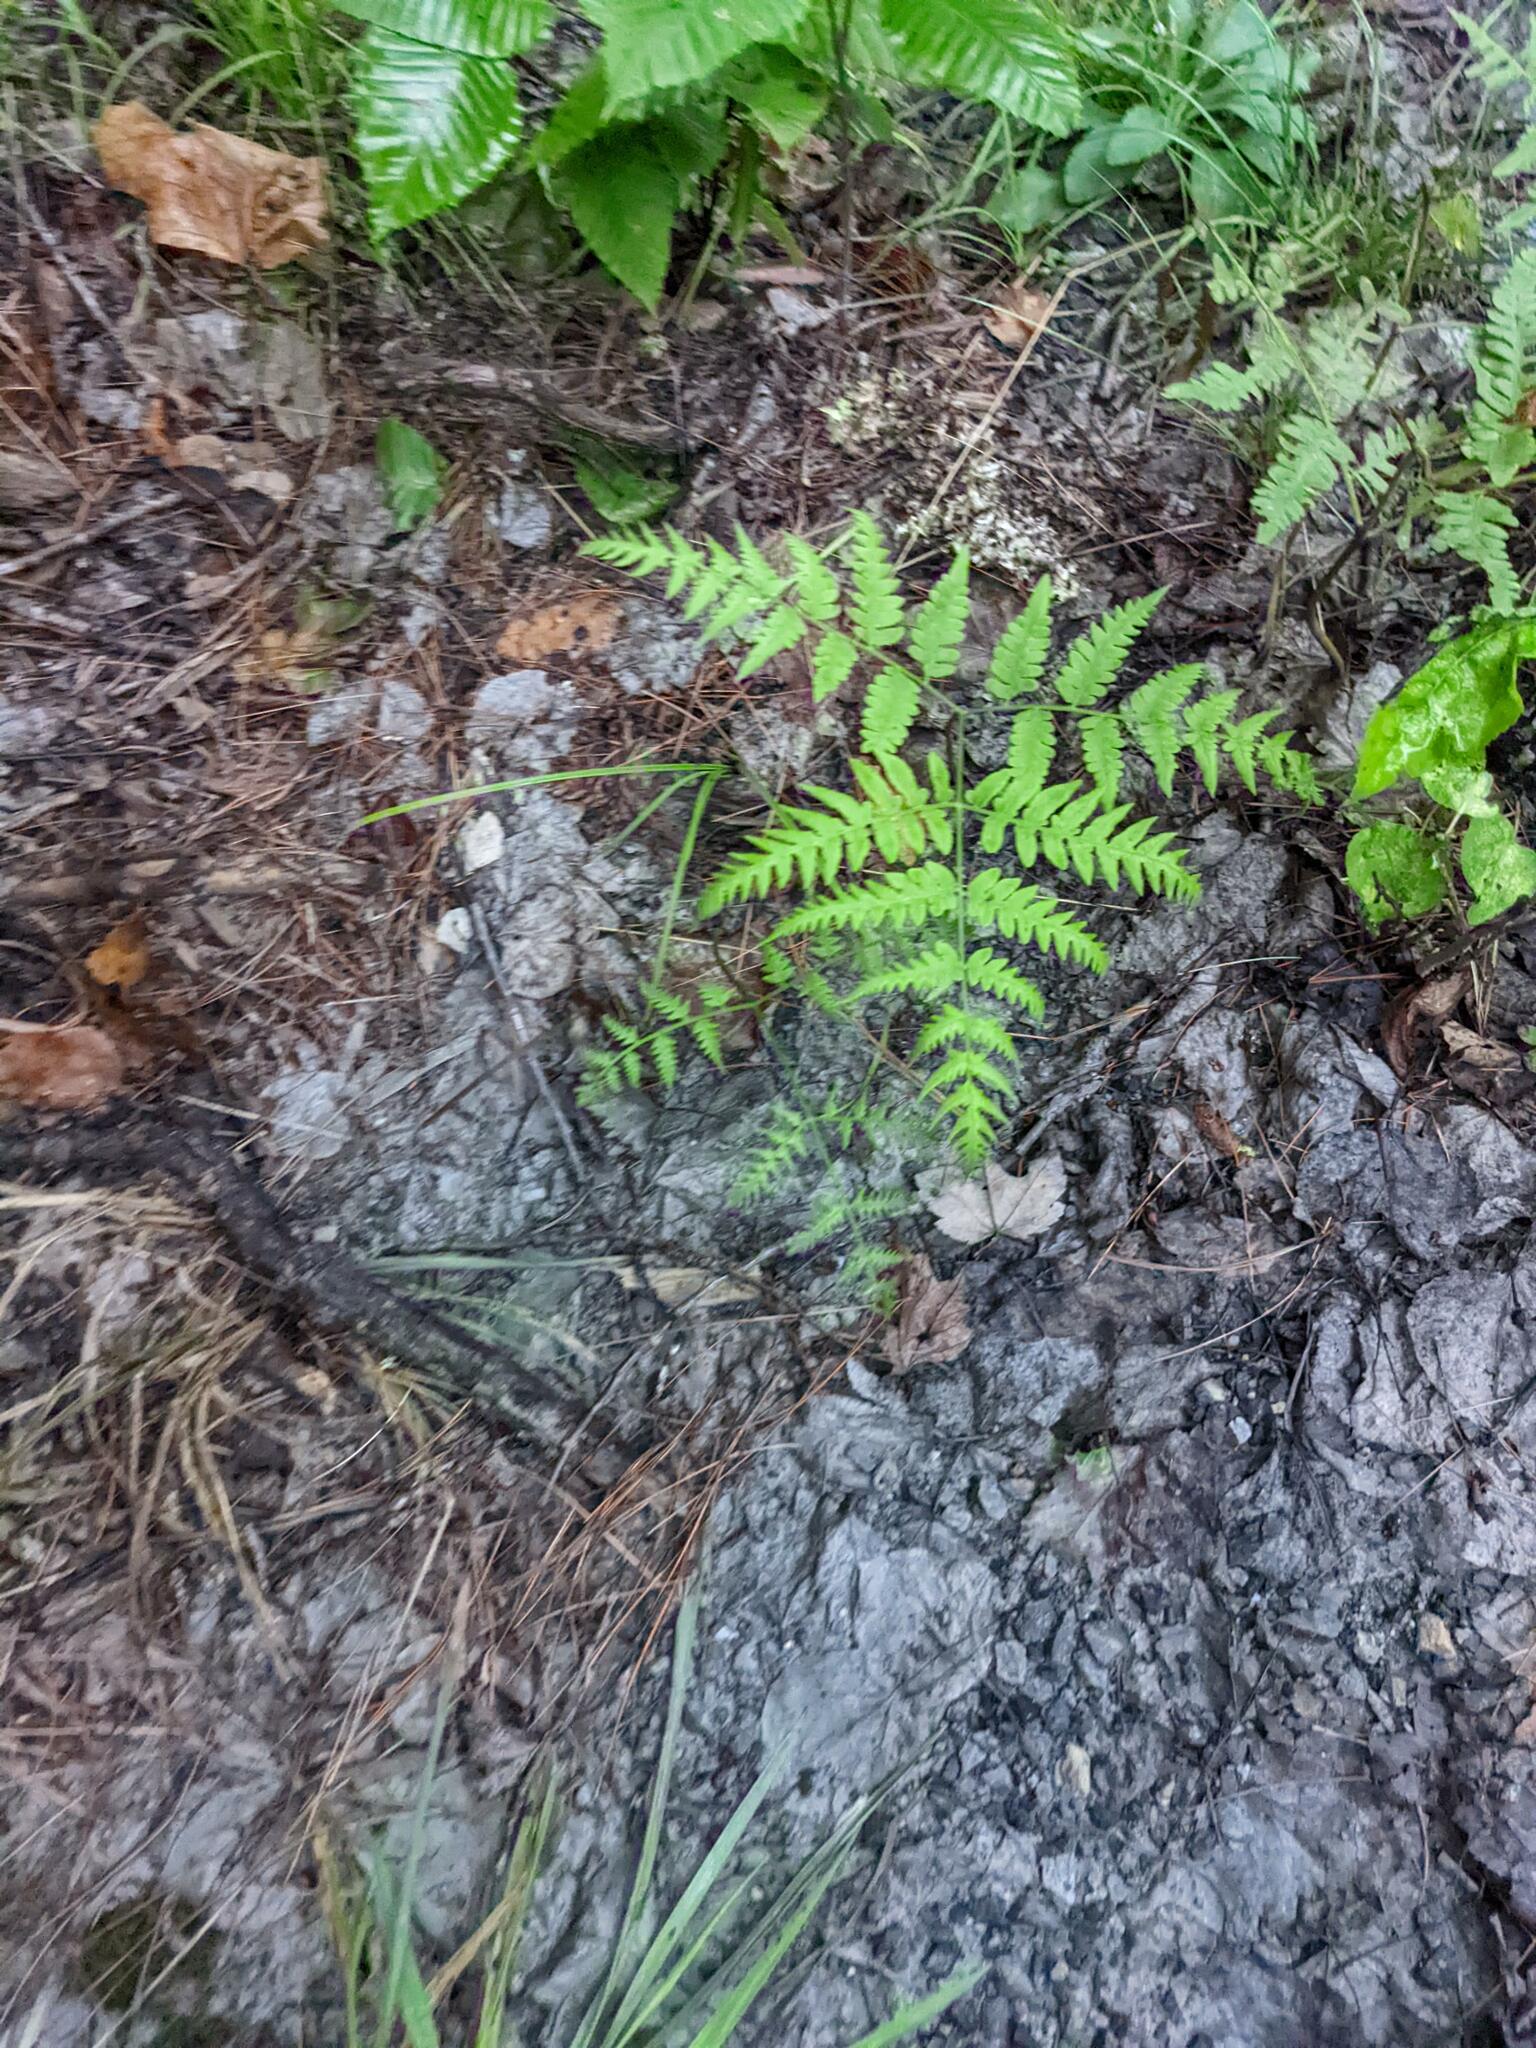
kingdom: Plantae
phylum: Tracheophyta
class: Polypodiopsida
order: Polypodiales
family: Dennstaedtiaceae
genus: Pteridium
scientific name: Pteridium aquilinum
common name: Bracken
